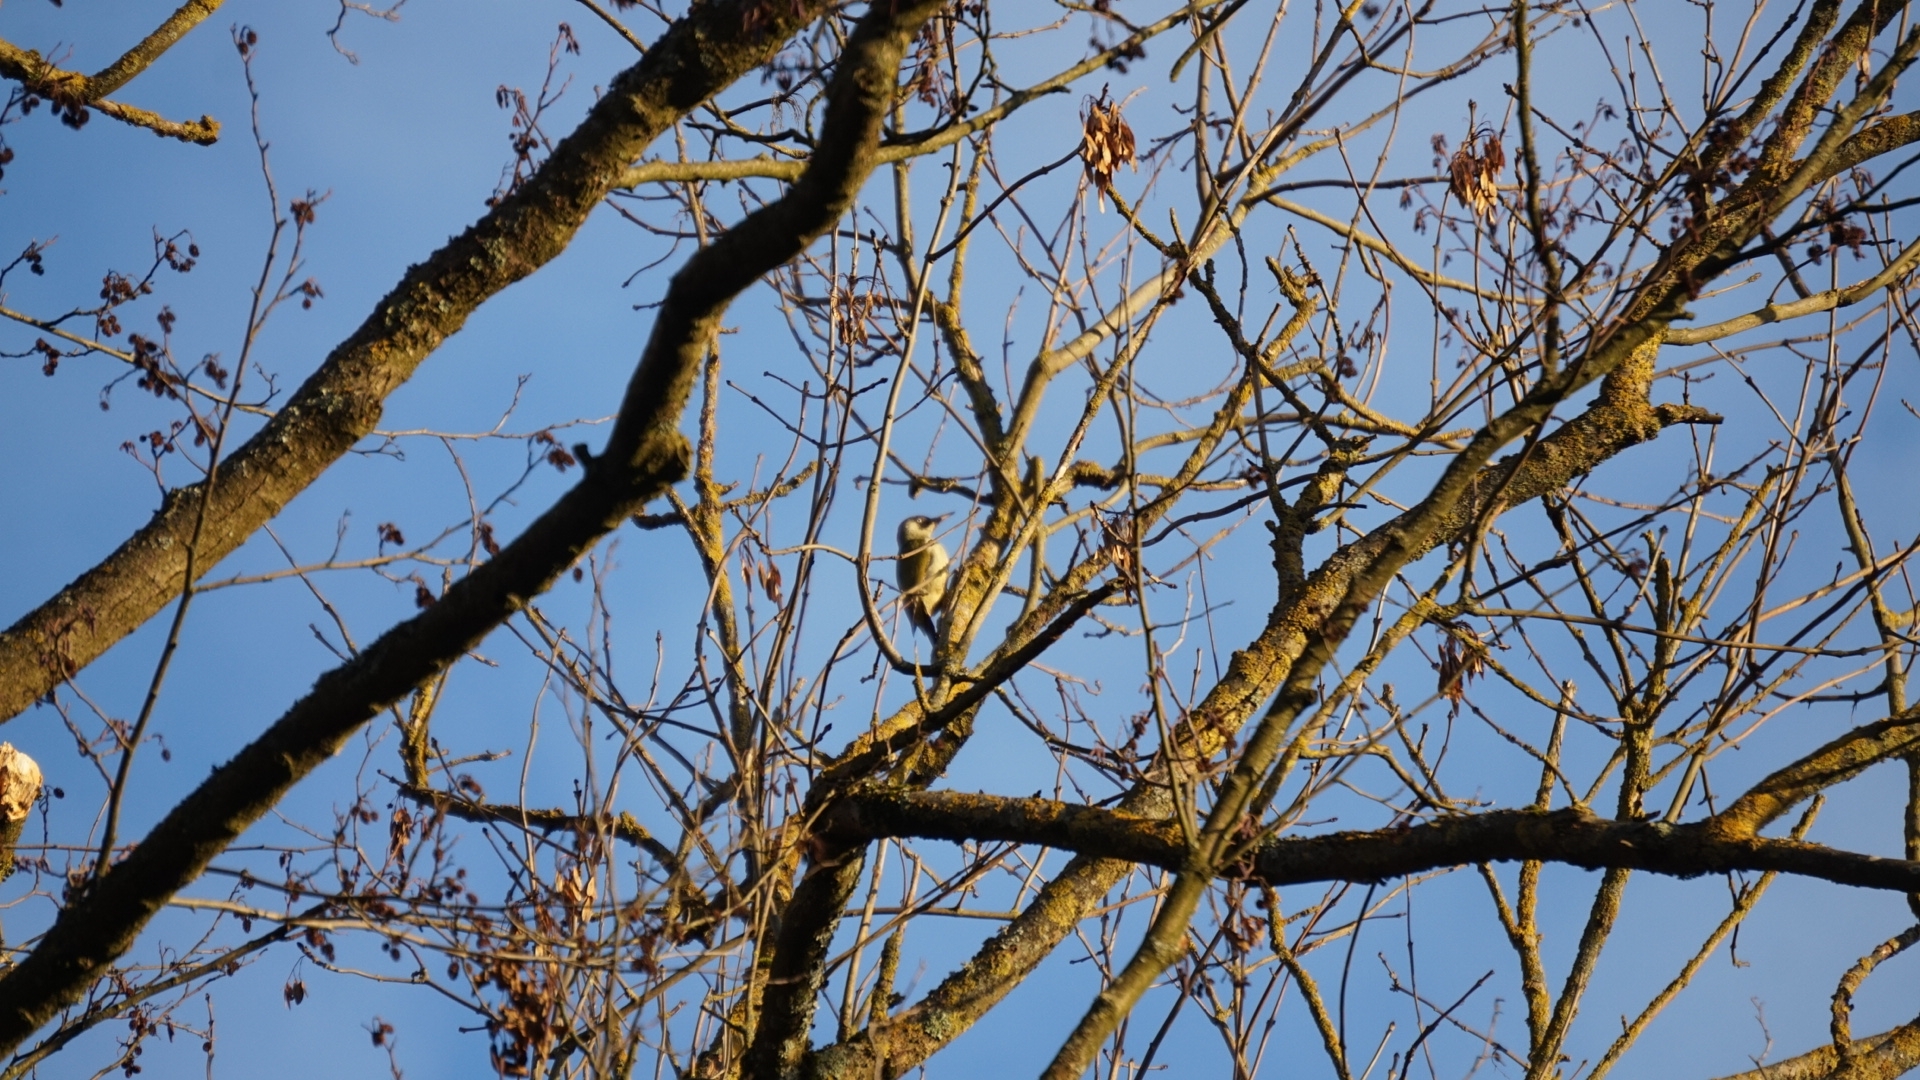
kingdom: Animalia
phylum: Chordata
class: Aves
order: Piciformes
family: Picidae
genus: Picus
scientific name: Picus viridis
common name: European green woodpecker
